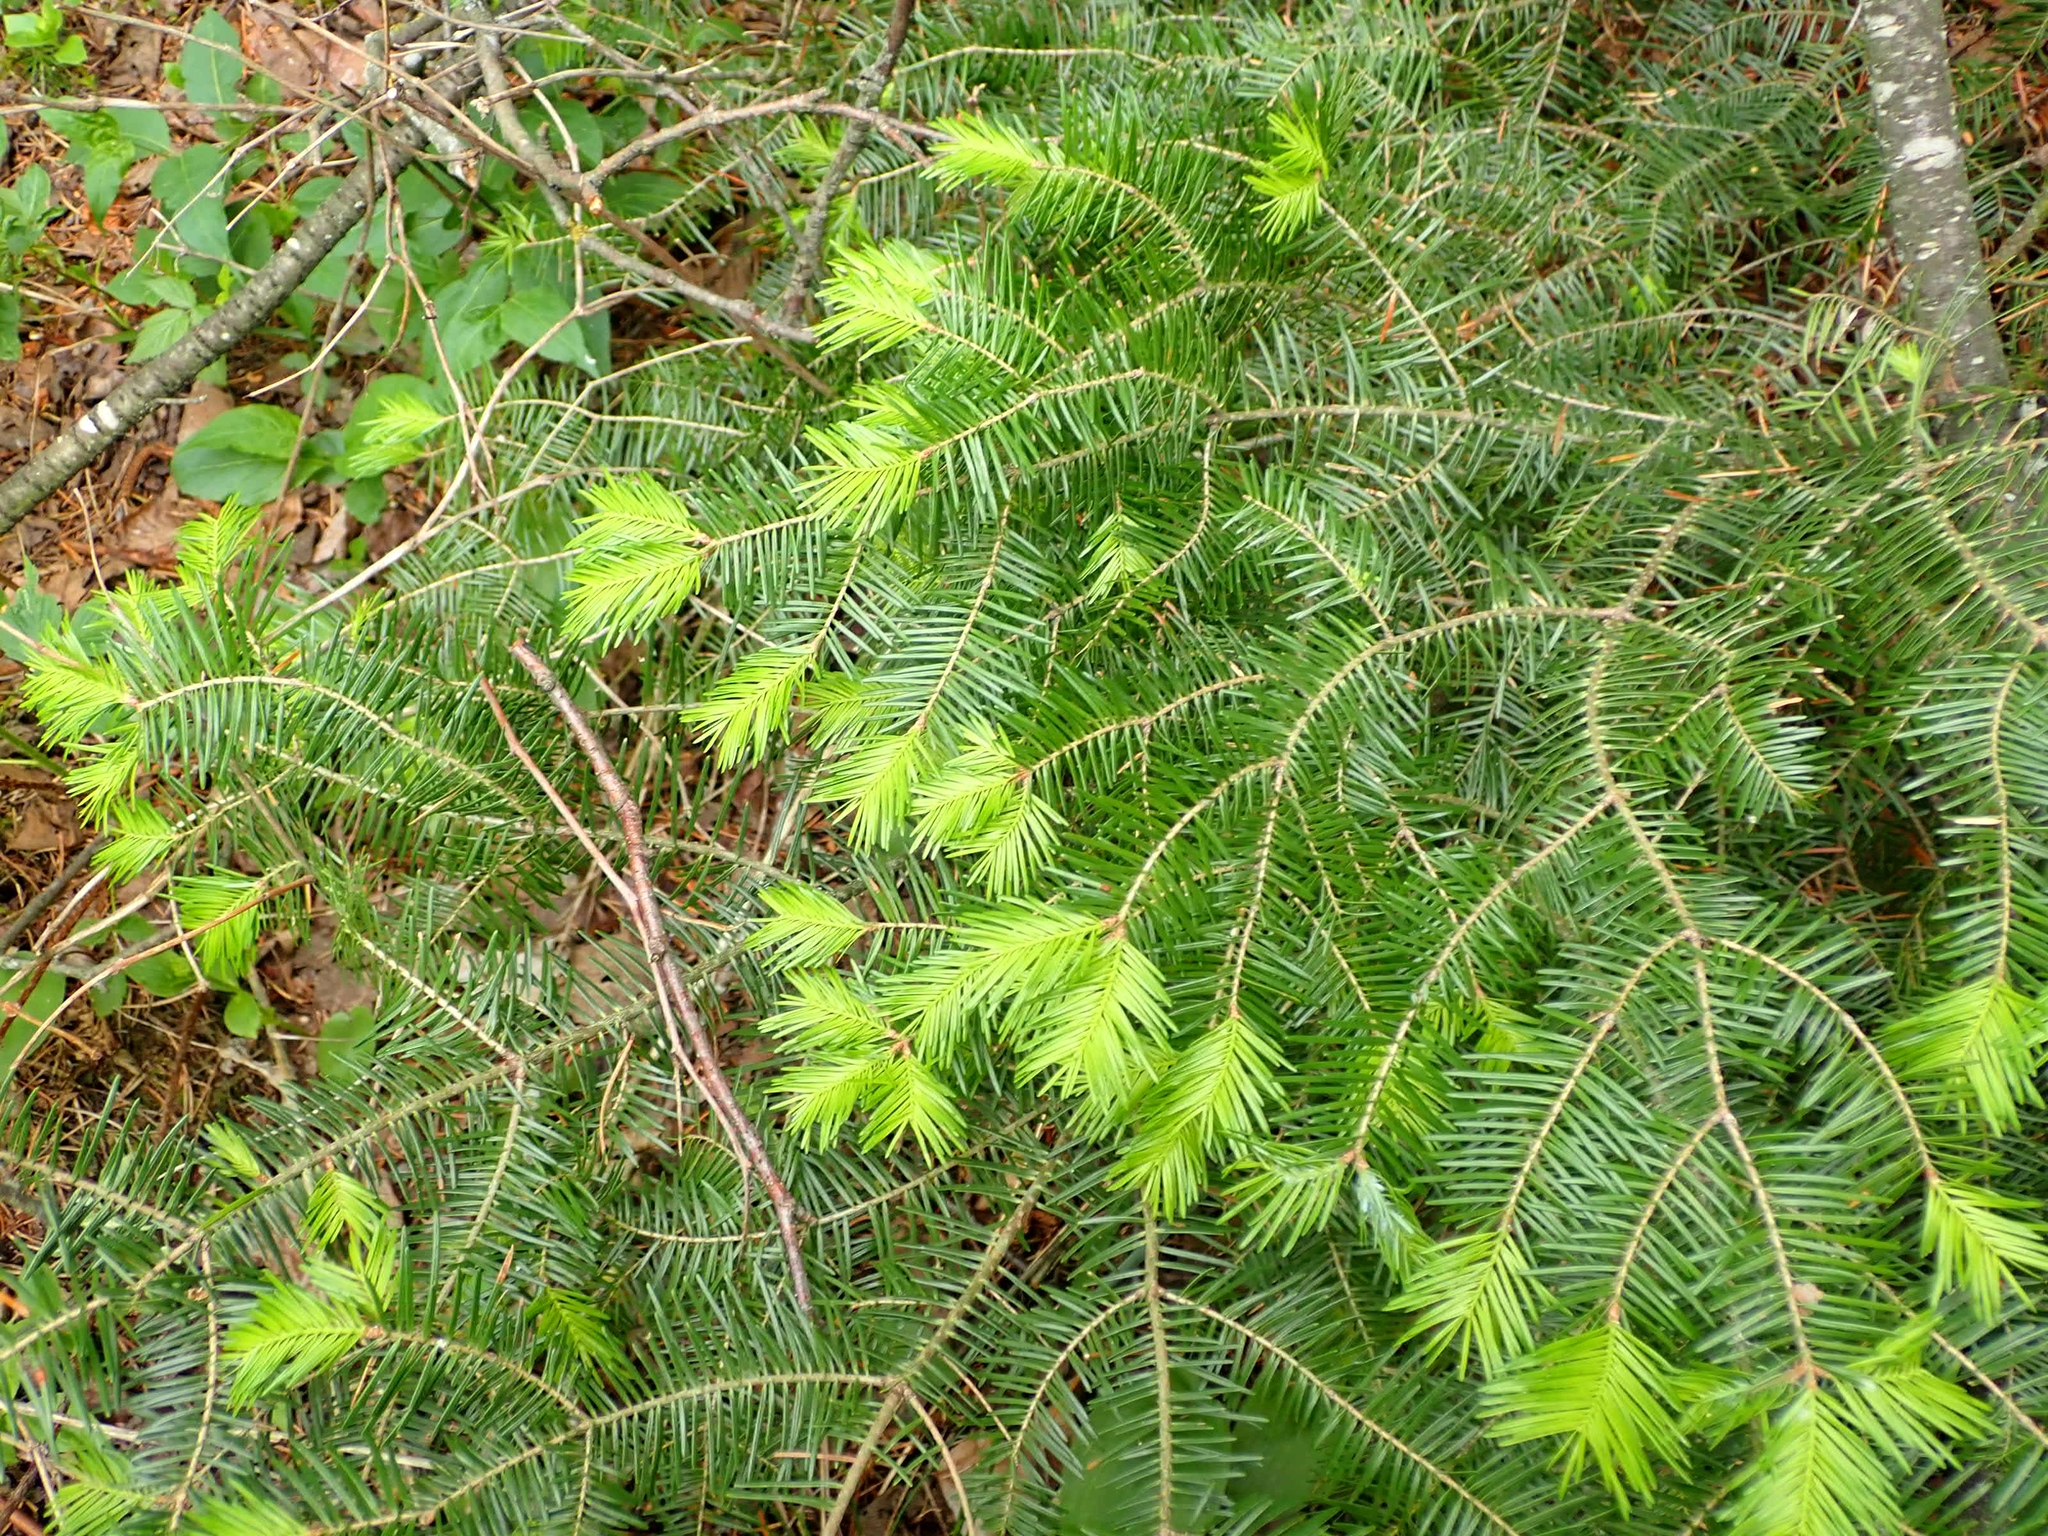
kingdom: Plantae
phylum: Tracheophyta
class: Pinopsida
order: Pinales
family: Pinaceae
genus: Abies
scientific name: Abies balsamea
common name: Balsam fir
